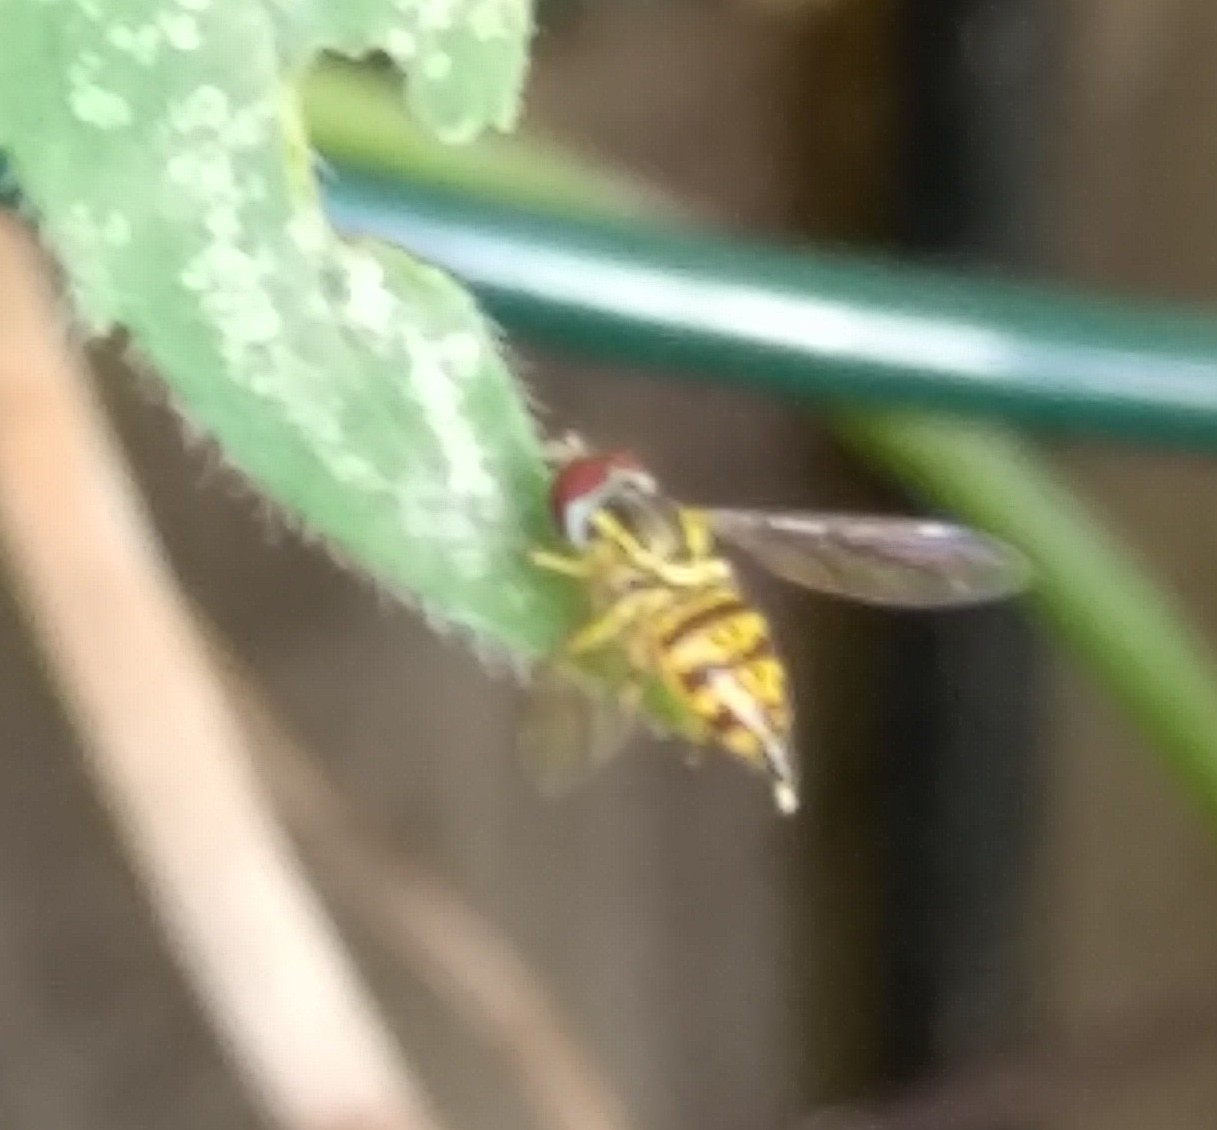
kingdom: Animalia
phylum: Arthropoda
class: Insecta
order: Diptera
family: Syrphidae
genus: Toxomerus
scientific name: Toxomerus geminatus
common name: Eastern calligrapher
